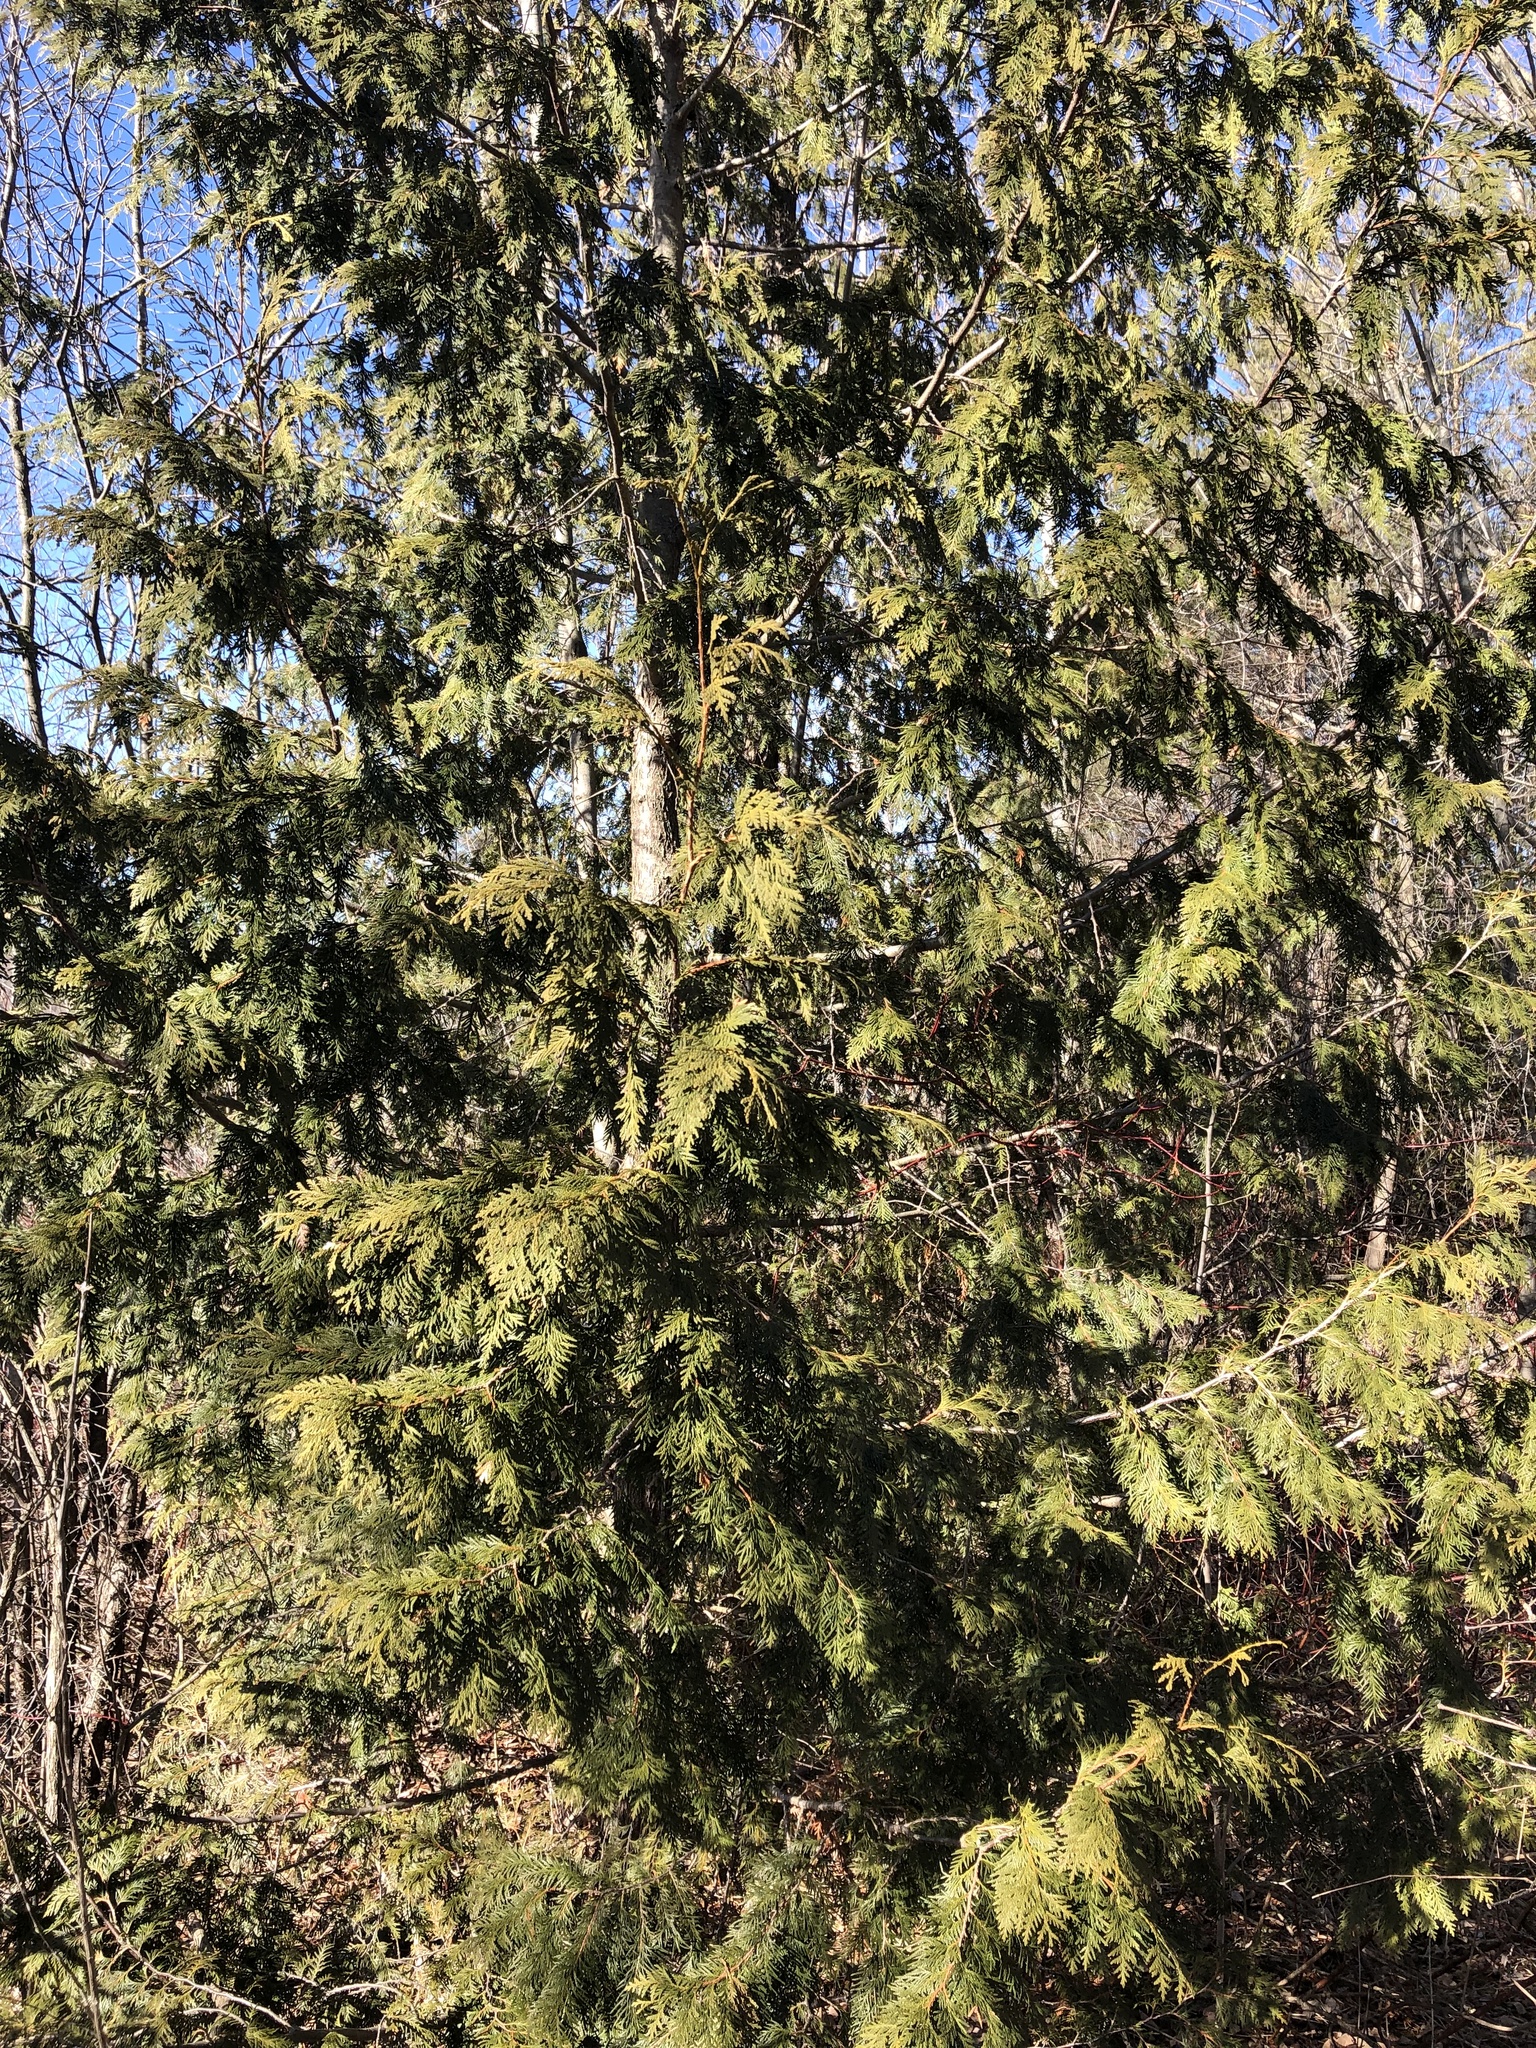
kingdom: Plantae
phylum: Tracheophyta
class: Pinopsida
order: Pinales
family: Cupressaceae
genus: Thuja
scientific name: Thuja occidentalis
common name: Northern white-cedar
